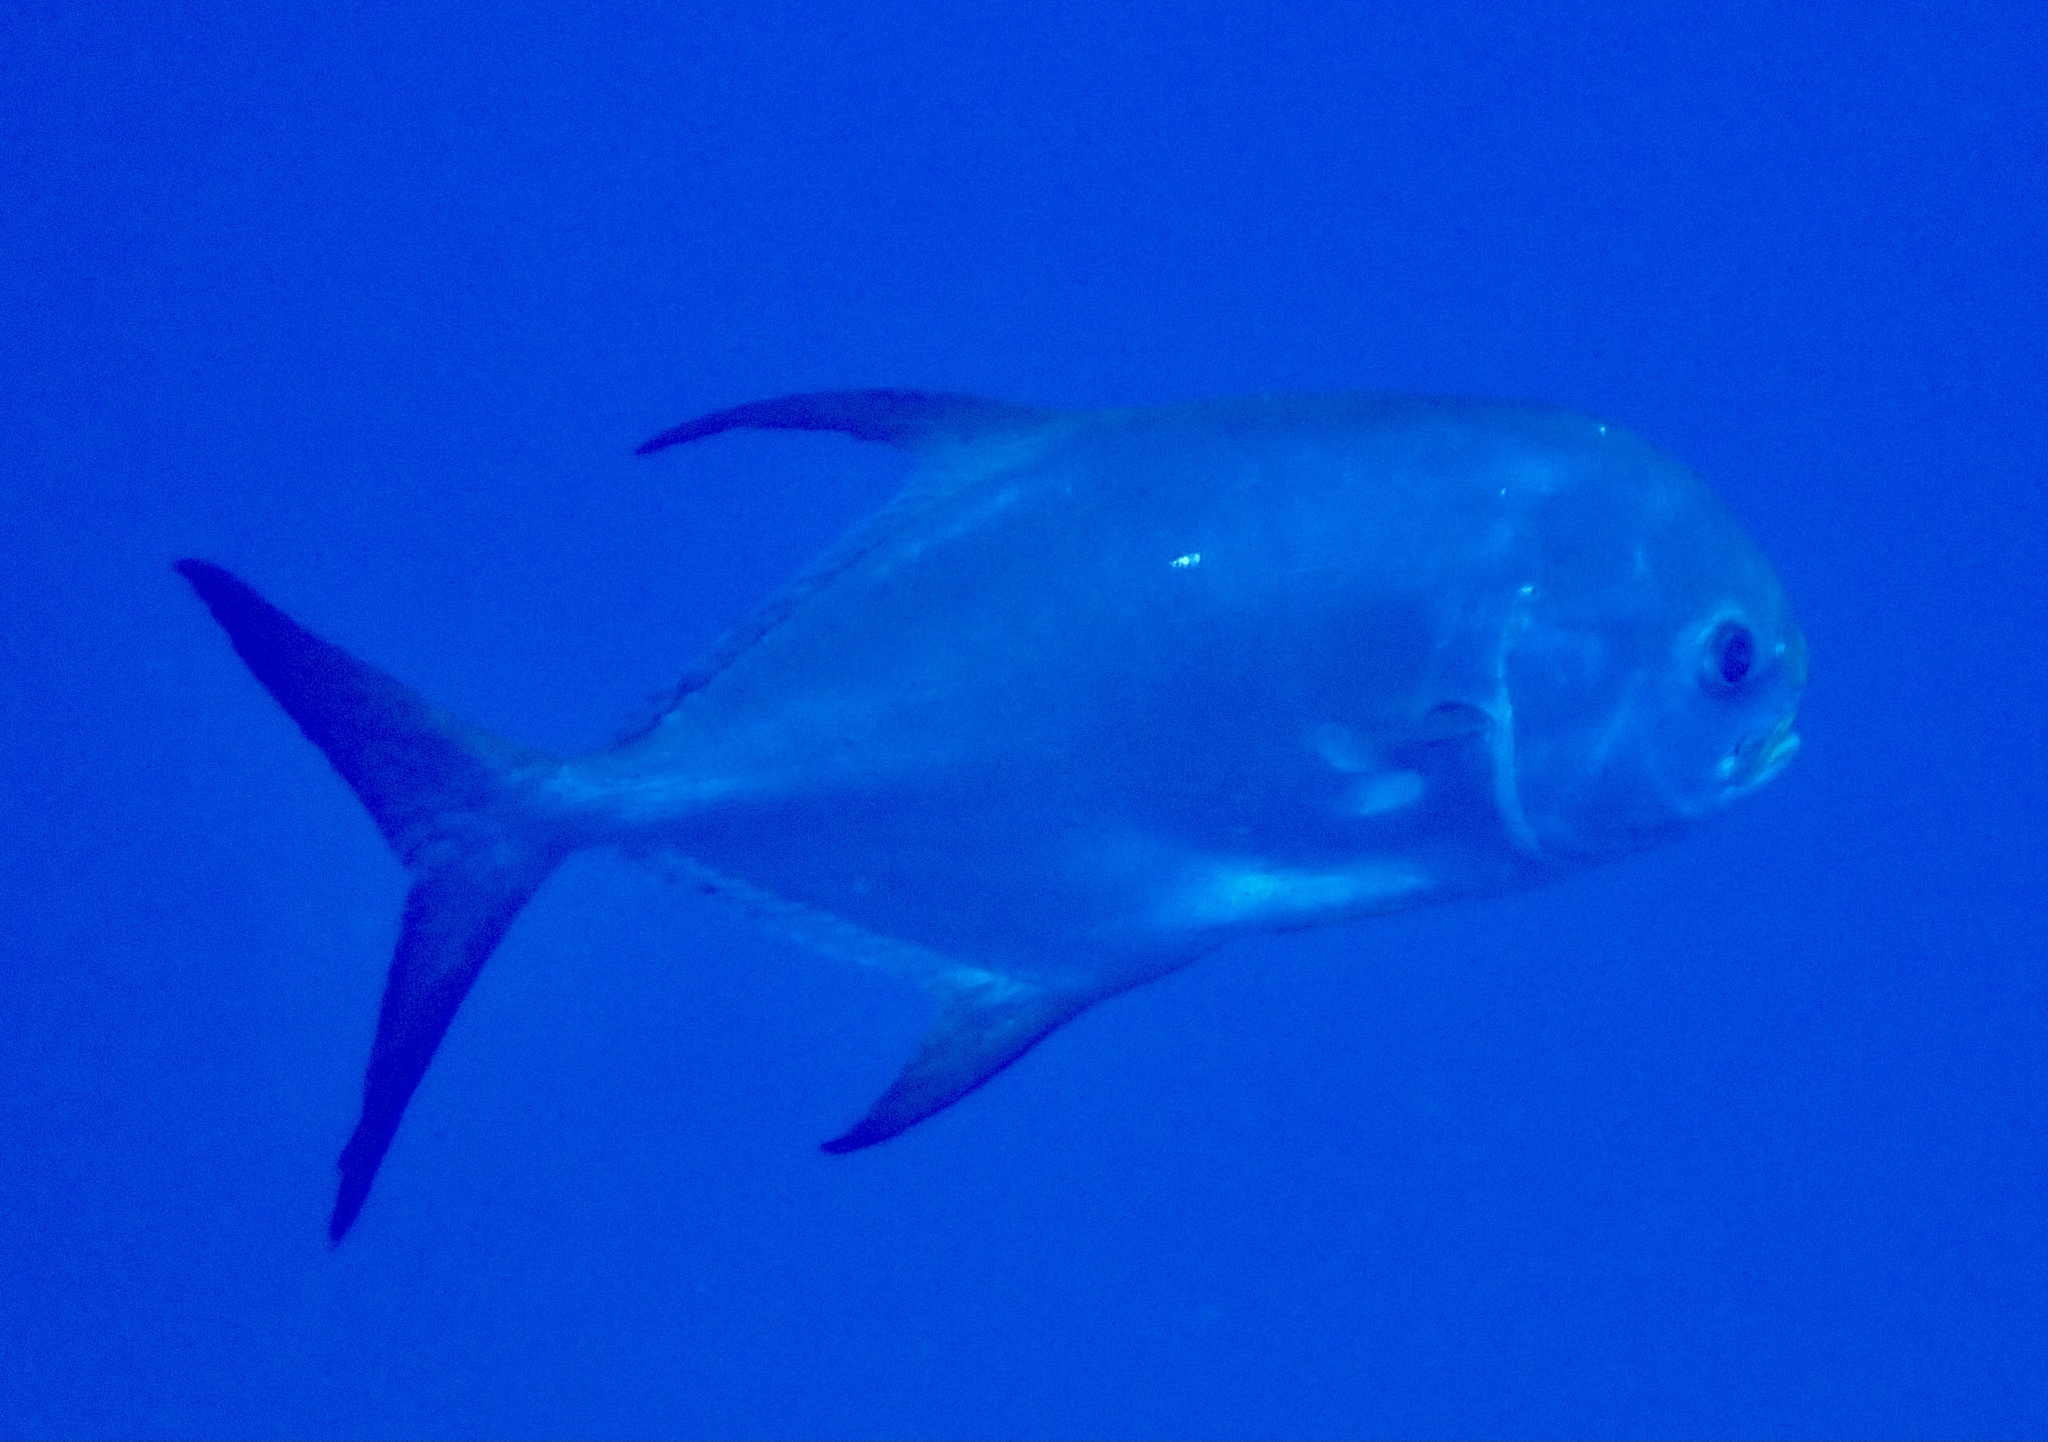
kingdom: Animalia
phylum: Chordata
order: Perciformes
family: Carangidae
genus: Trachinotus
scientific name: Trachinotus blochii
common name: Snubnose pompano
